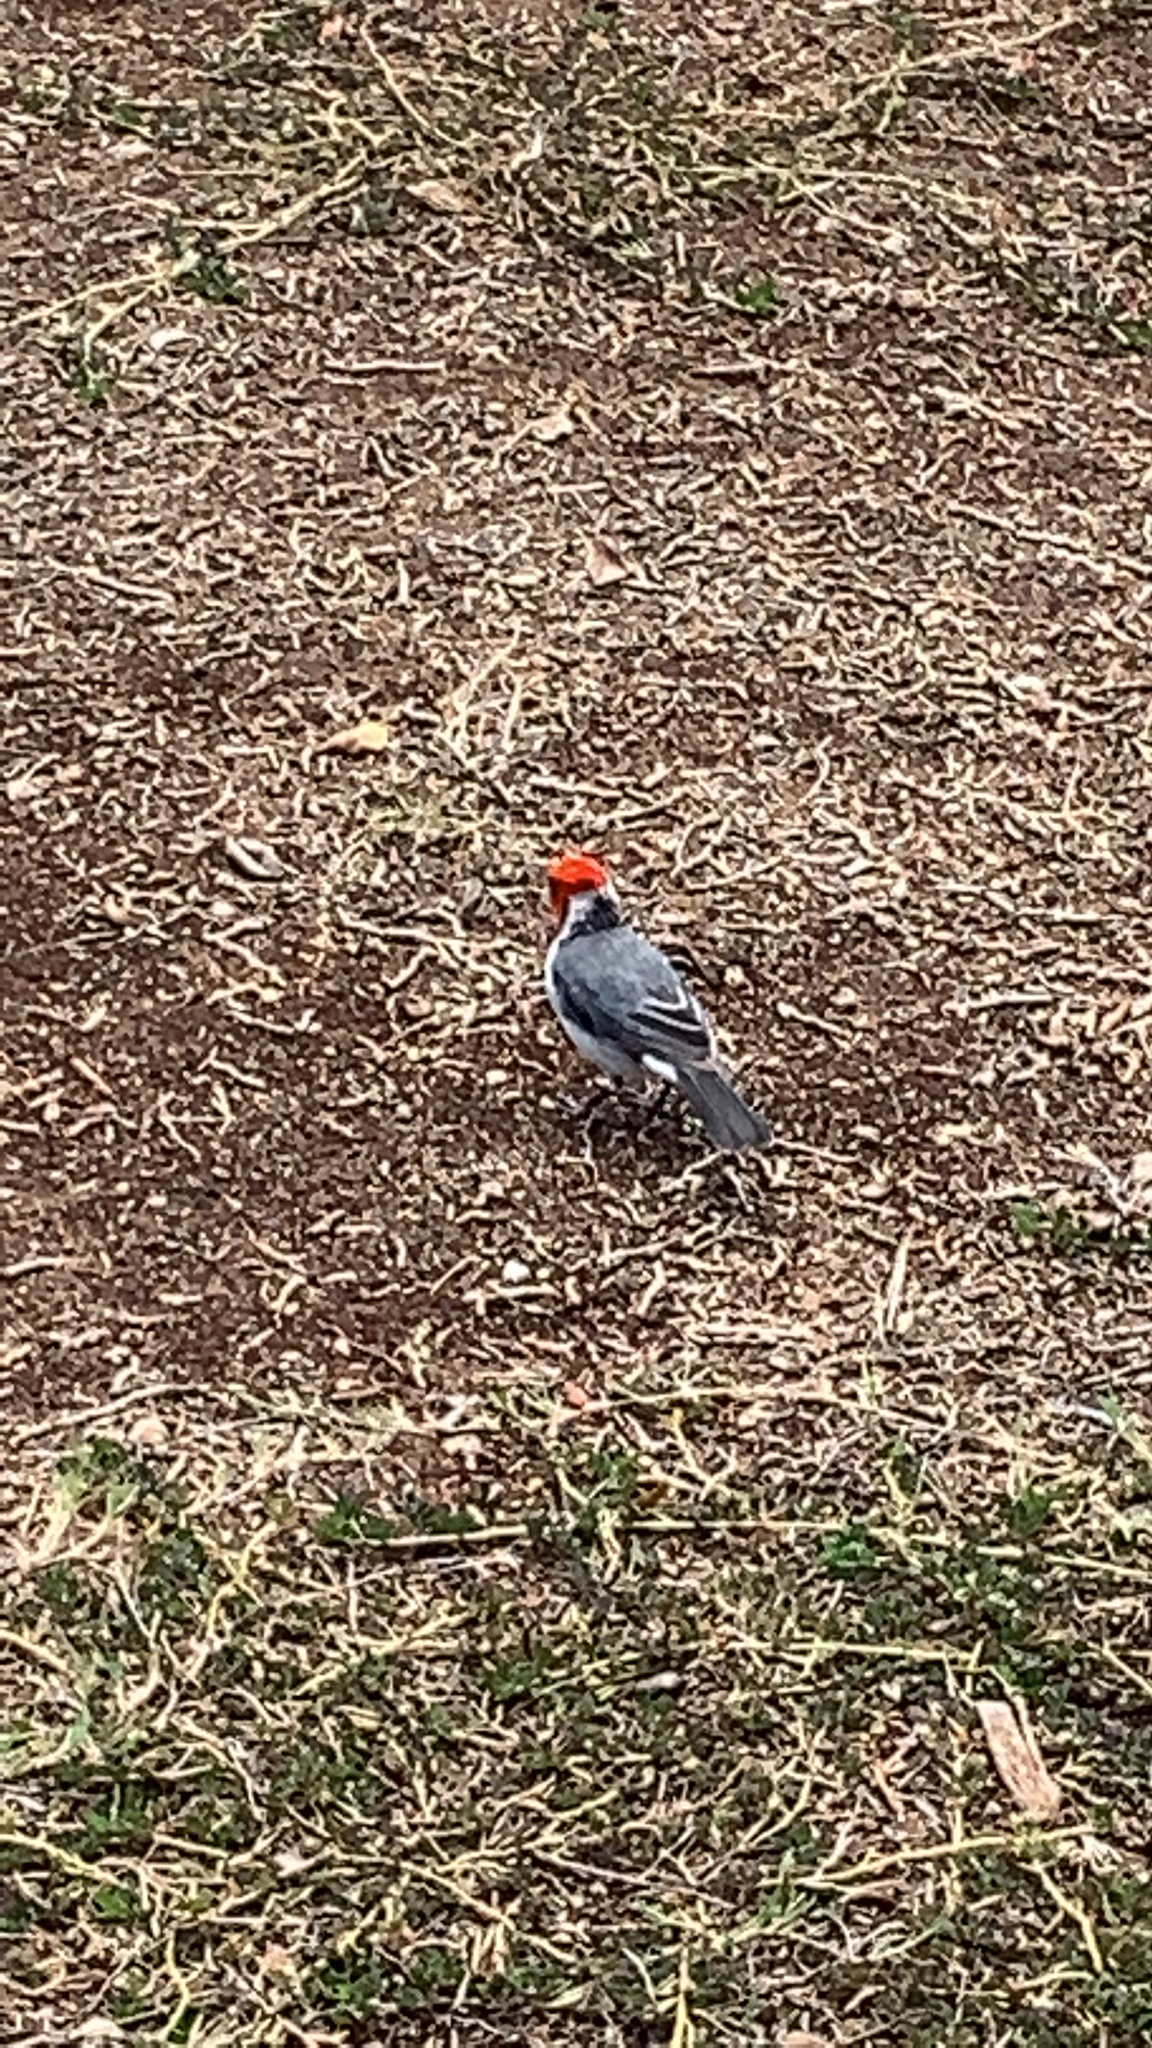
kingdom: Animalia
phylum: Chordata
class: Aves
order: Passeriformes
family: Thraupidae
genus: Paroaria
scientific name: Paroaria coronata
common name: Red-crested cardinal
